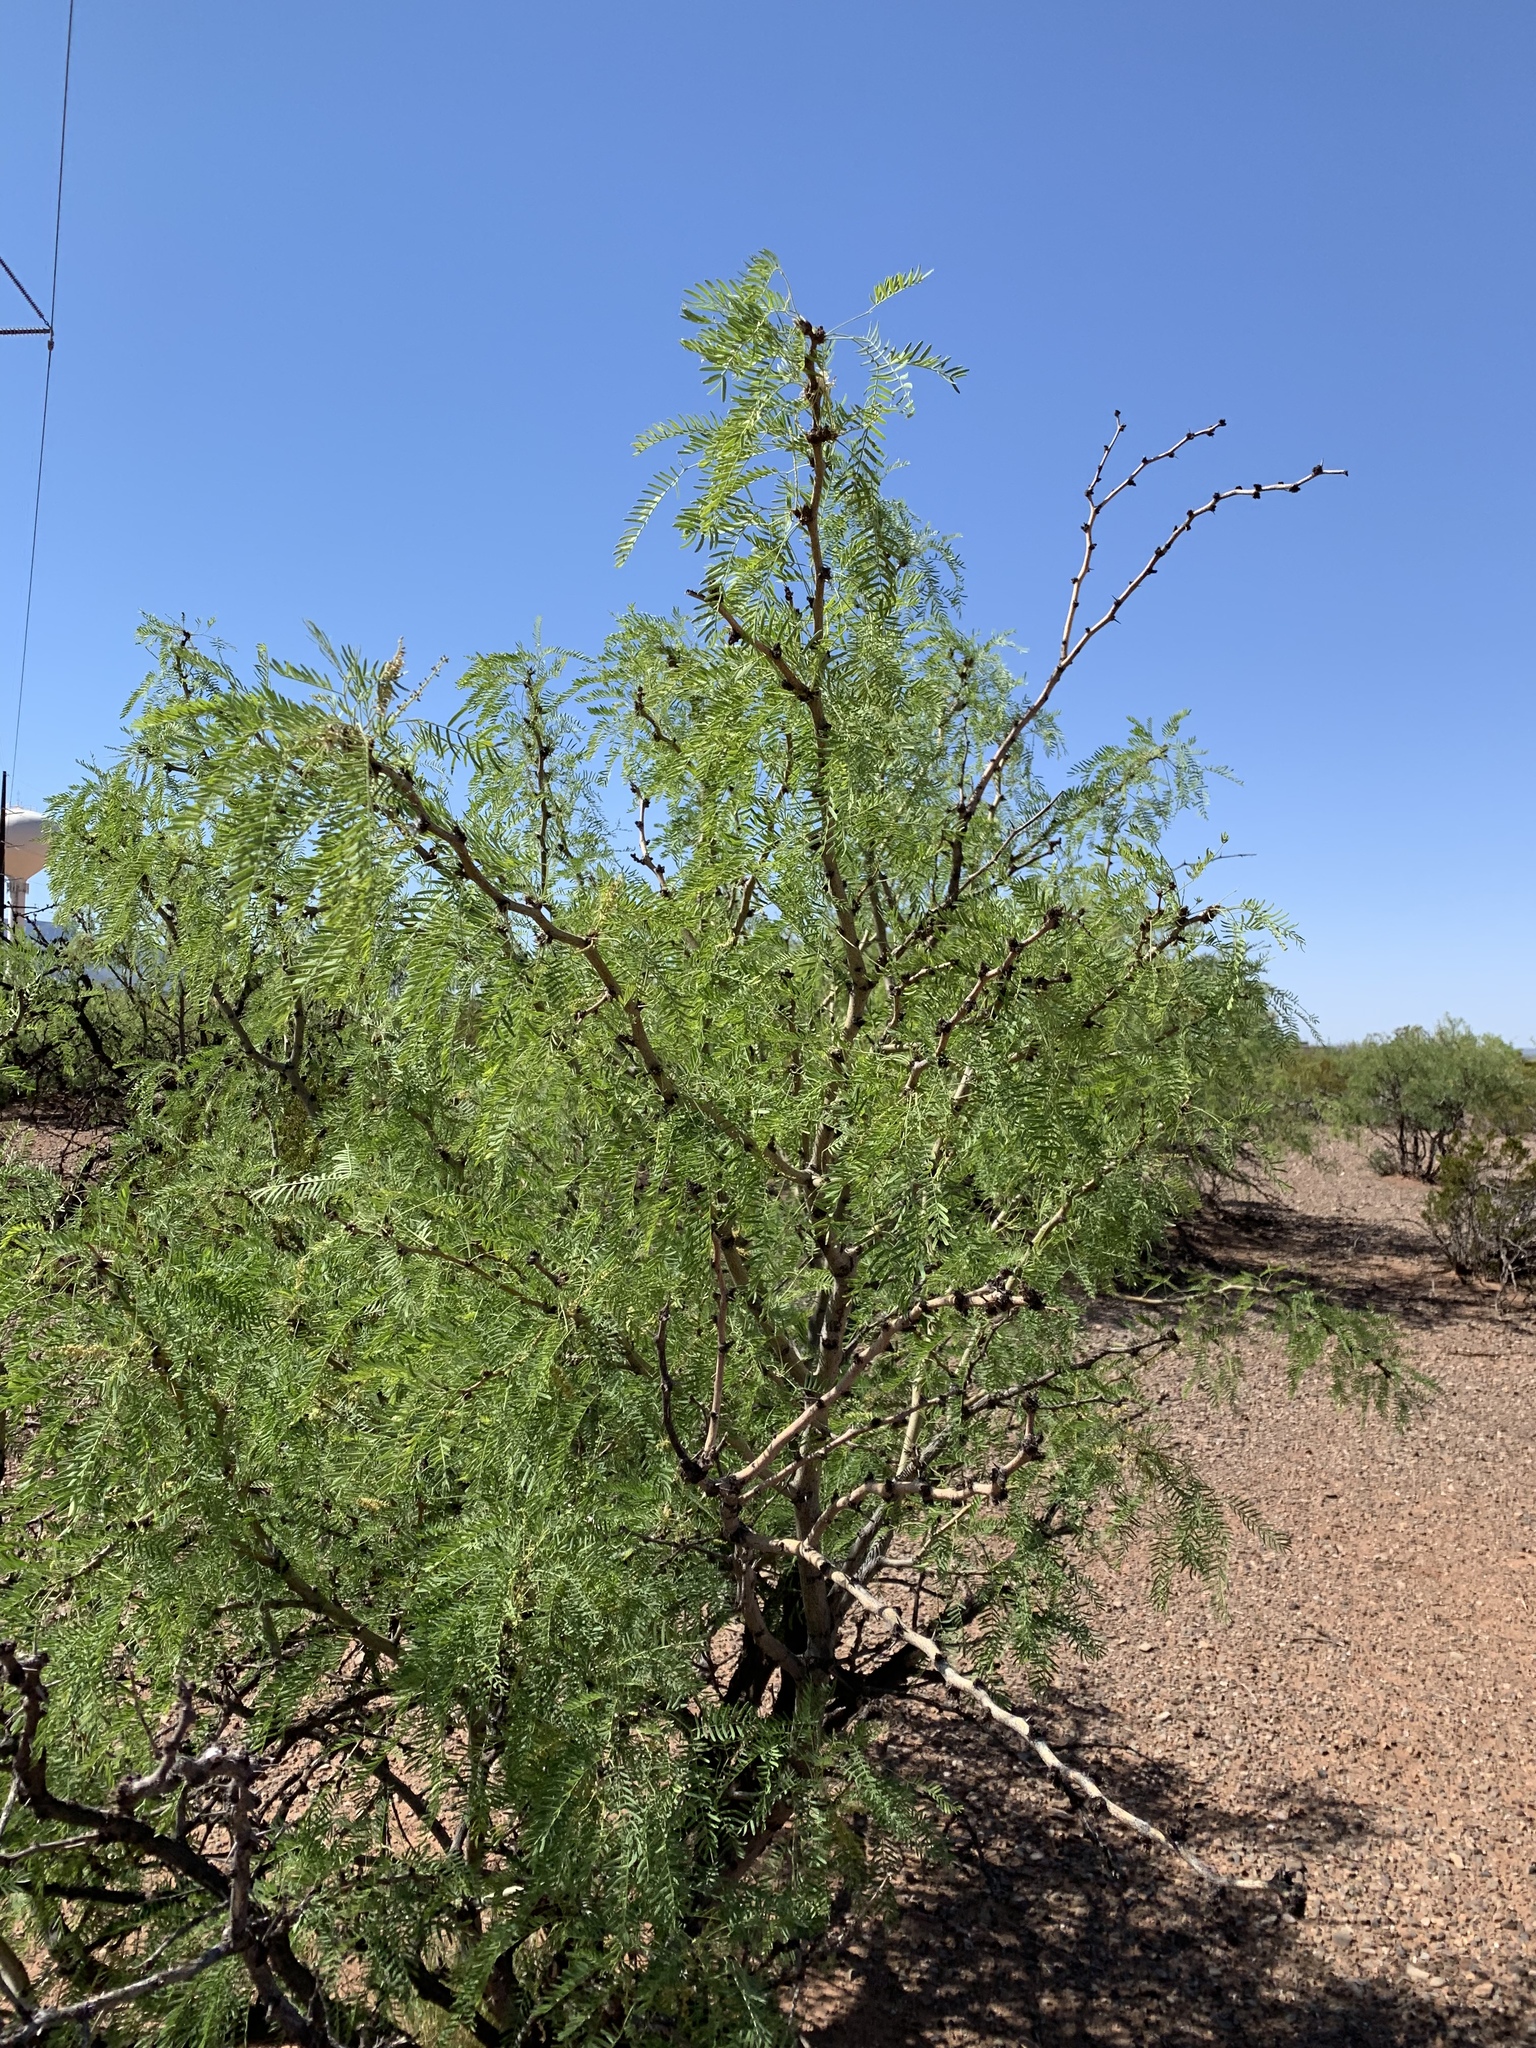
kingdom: Plantae
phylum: Tracheophyta
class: Magnoliopsida
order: Fabales
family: Fabaceae
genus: Prosopis
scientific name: Prosopis glandulosa
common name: Honey mesquite
